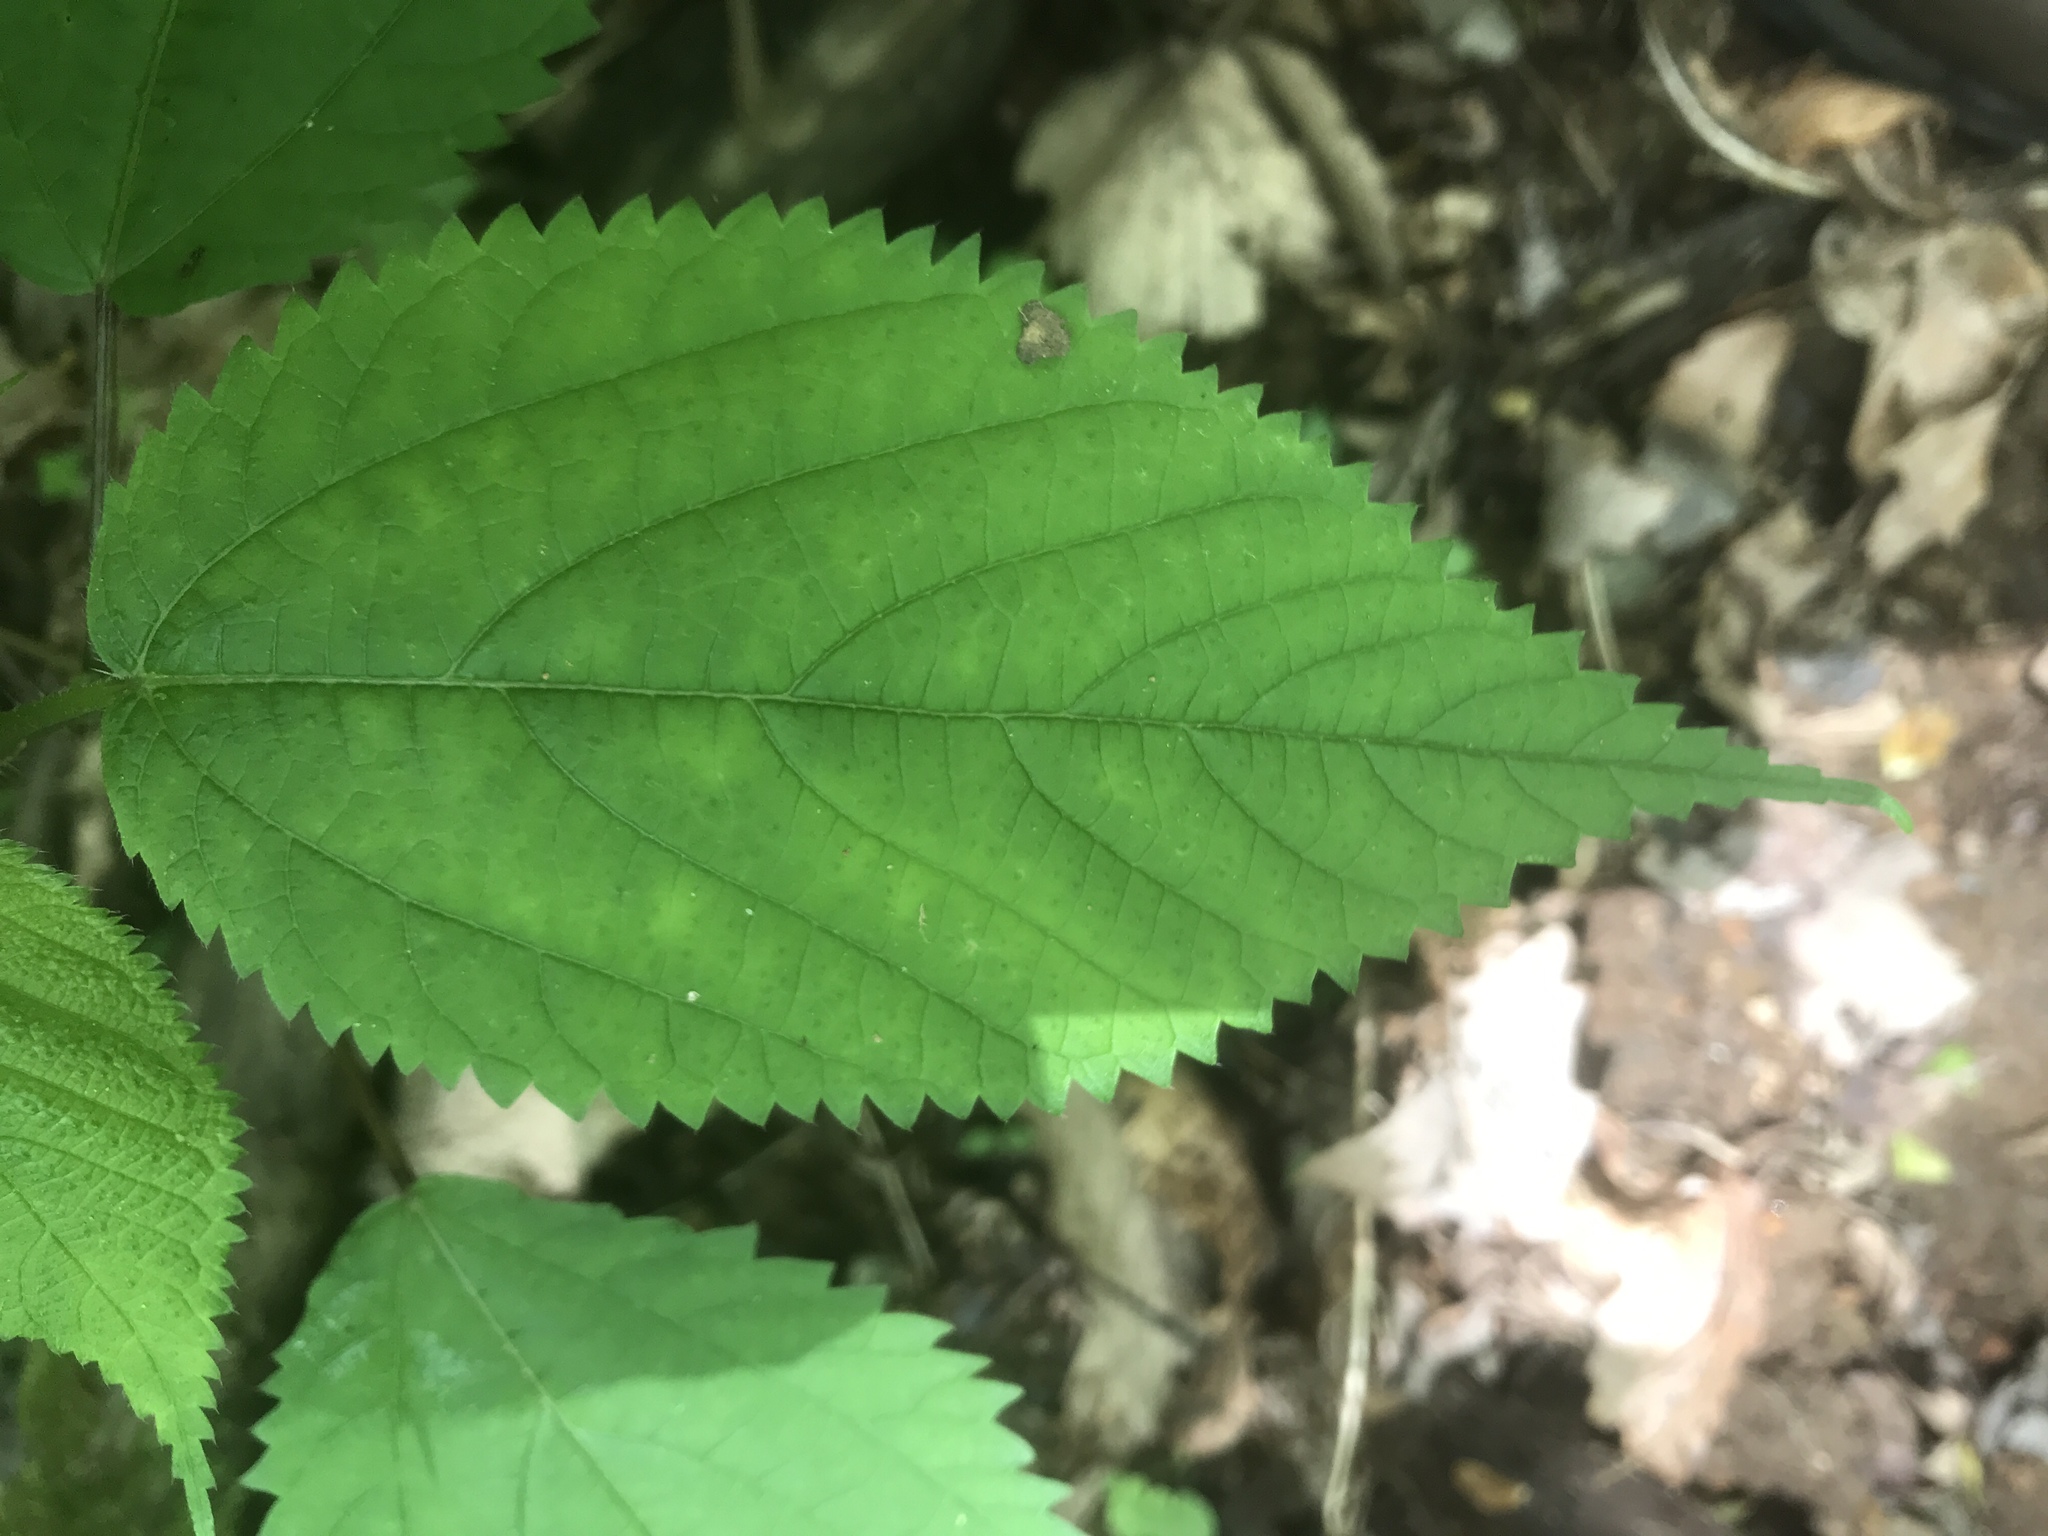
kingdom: Plantae
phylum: Tracheophyta
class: Magnoliopsida
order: Rosales
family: Urticaceae
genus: Laportea
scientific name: Laportea canadensis
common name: Canada nettle
